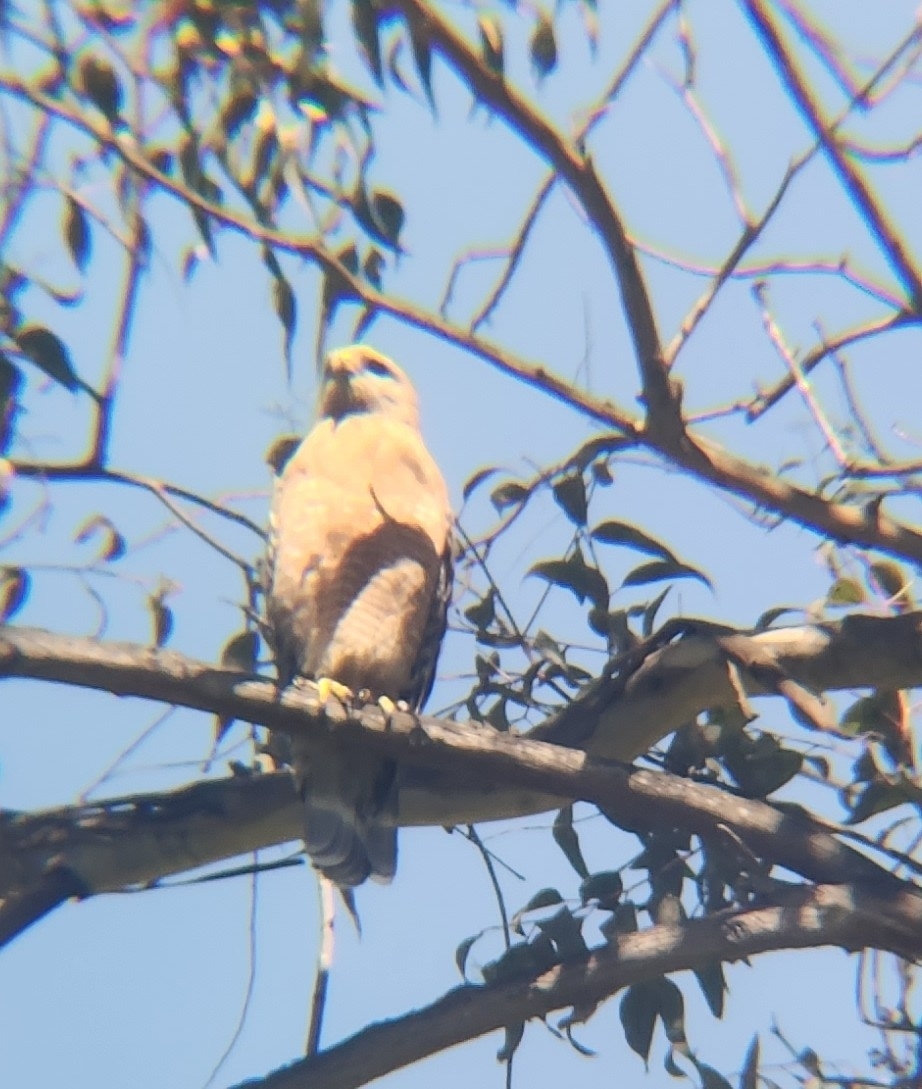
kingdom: Animalia
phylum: Chordata
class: Aves
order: Accipitriformes
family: Accipitridae
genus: Buteo
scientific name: Buteo lineatus
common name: Red-shouldered hawk
